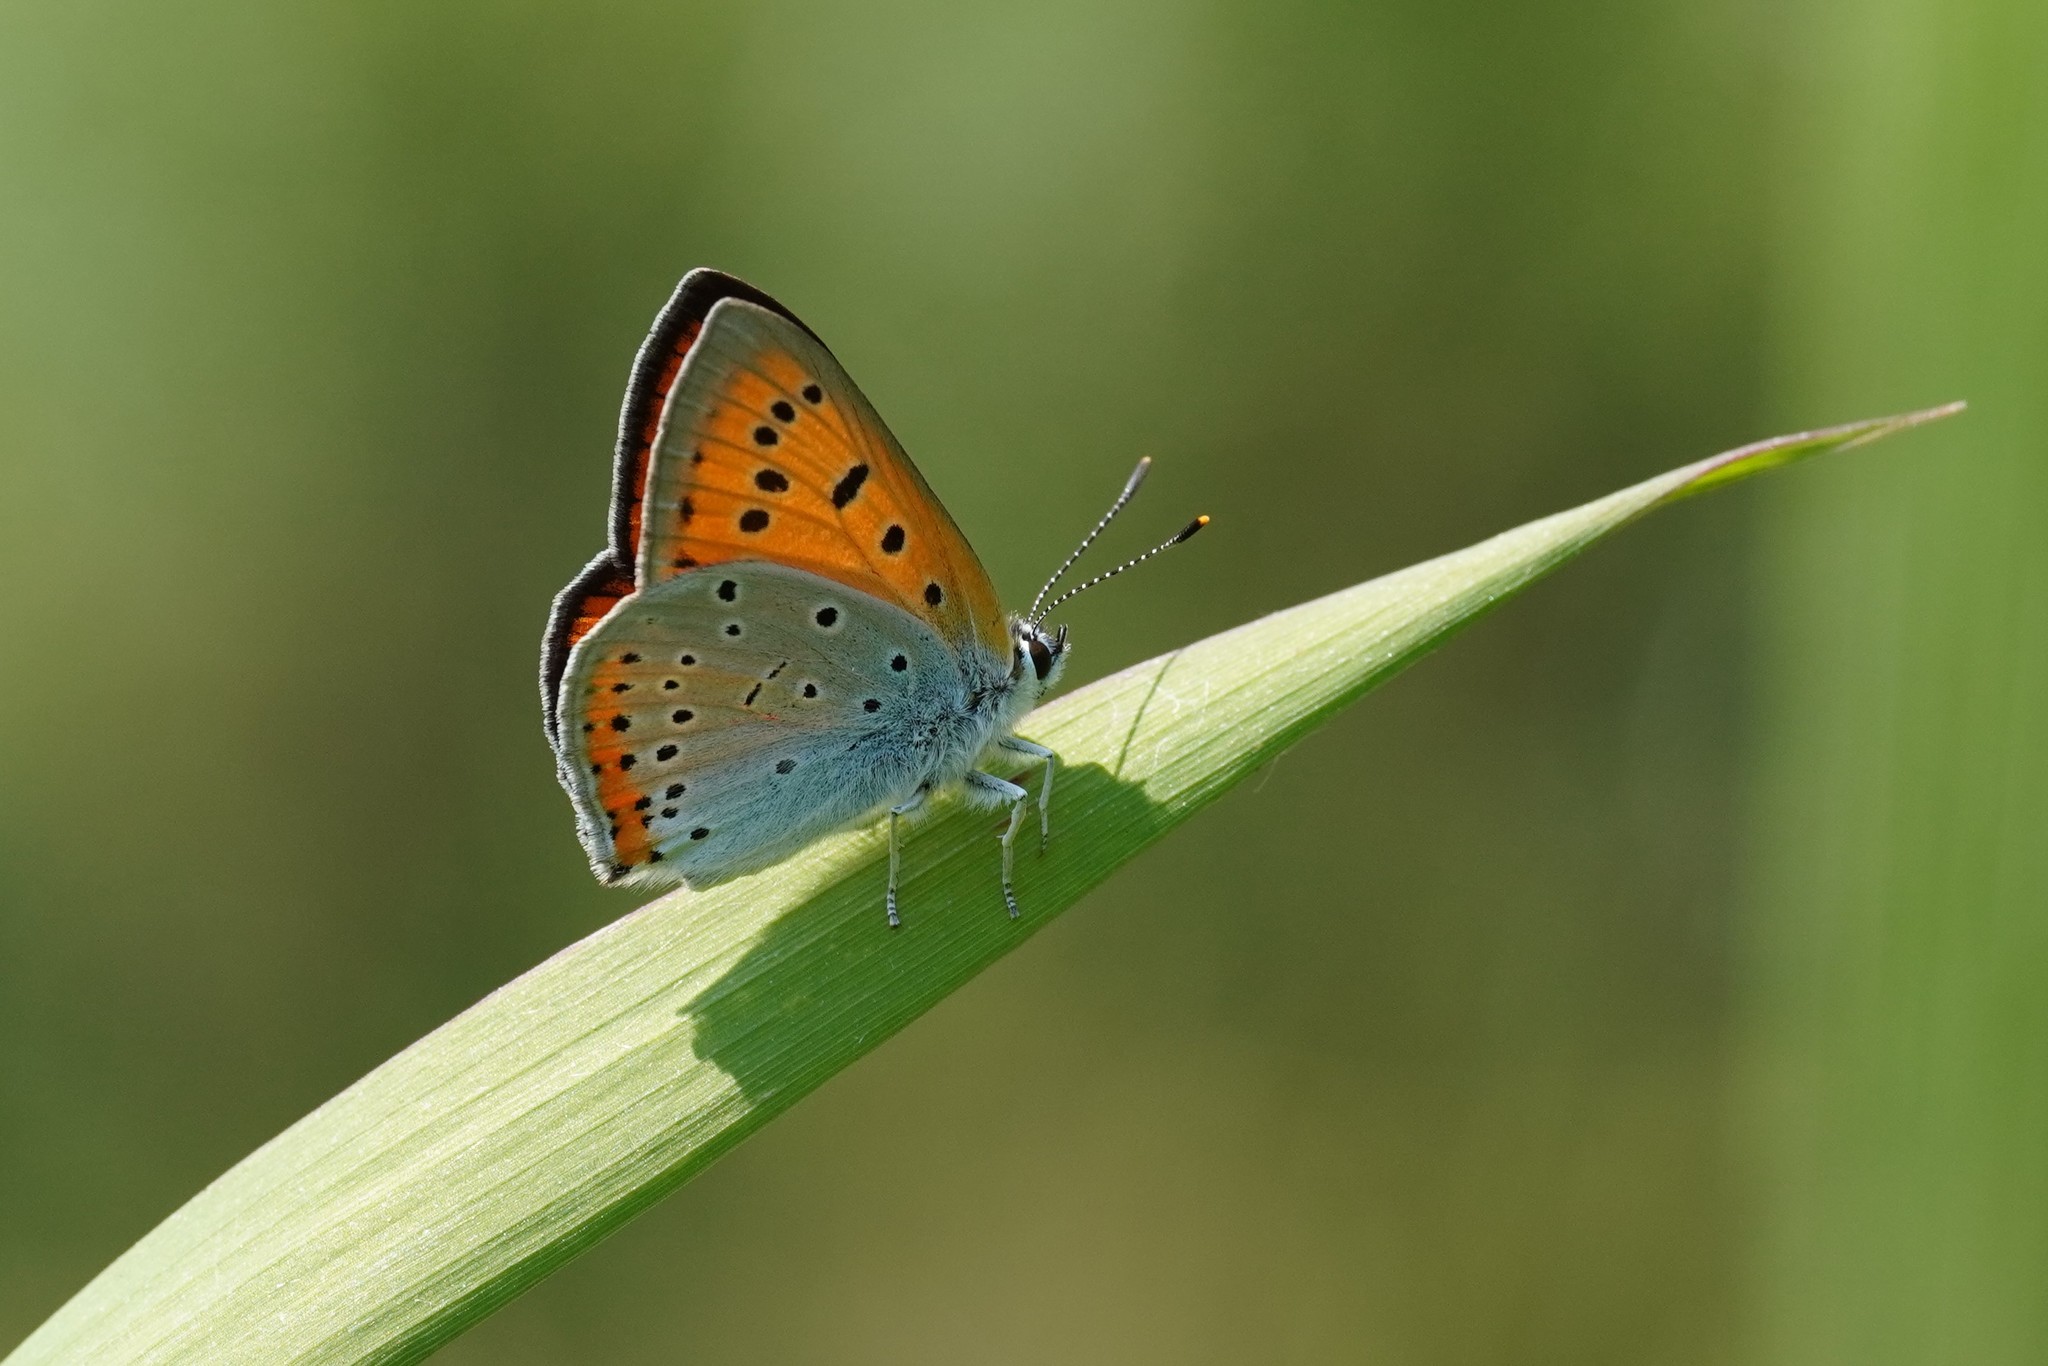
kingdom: Animalia
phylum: Arthropoda
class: Insecta
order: Lepidoptera
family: Lycaenidae
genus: Lycaena
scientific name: Lycaena dispar
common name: Large copper
